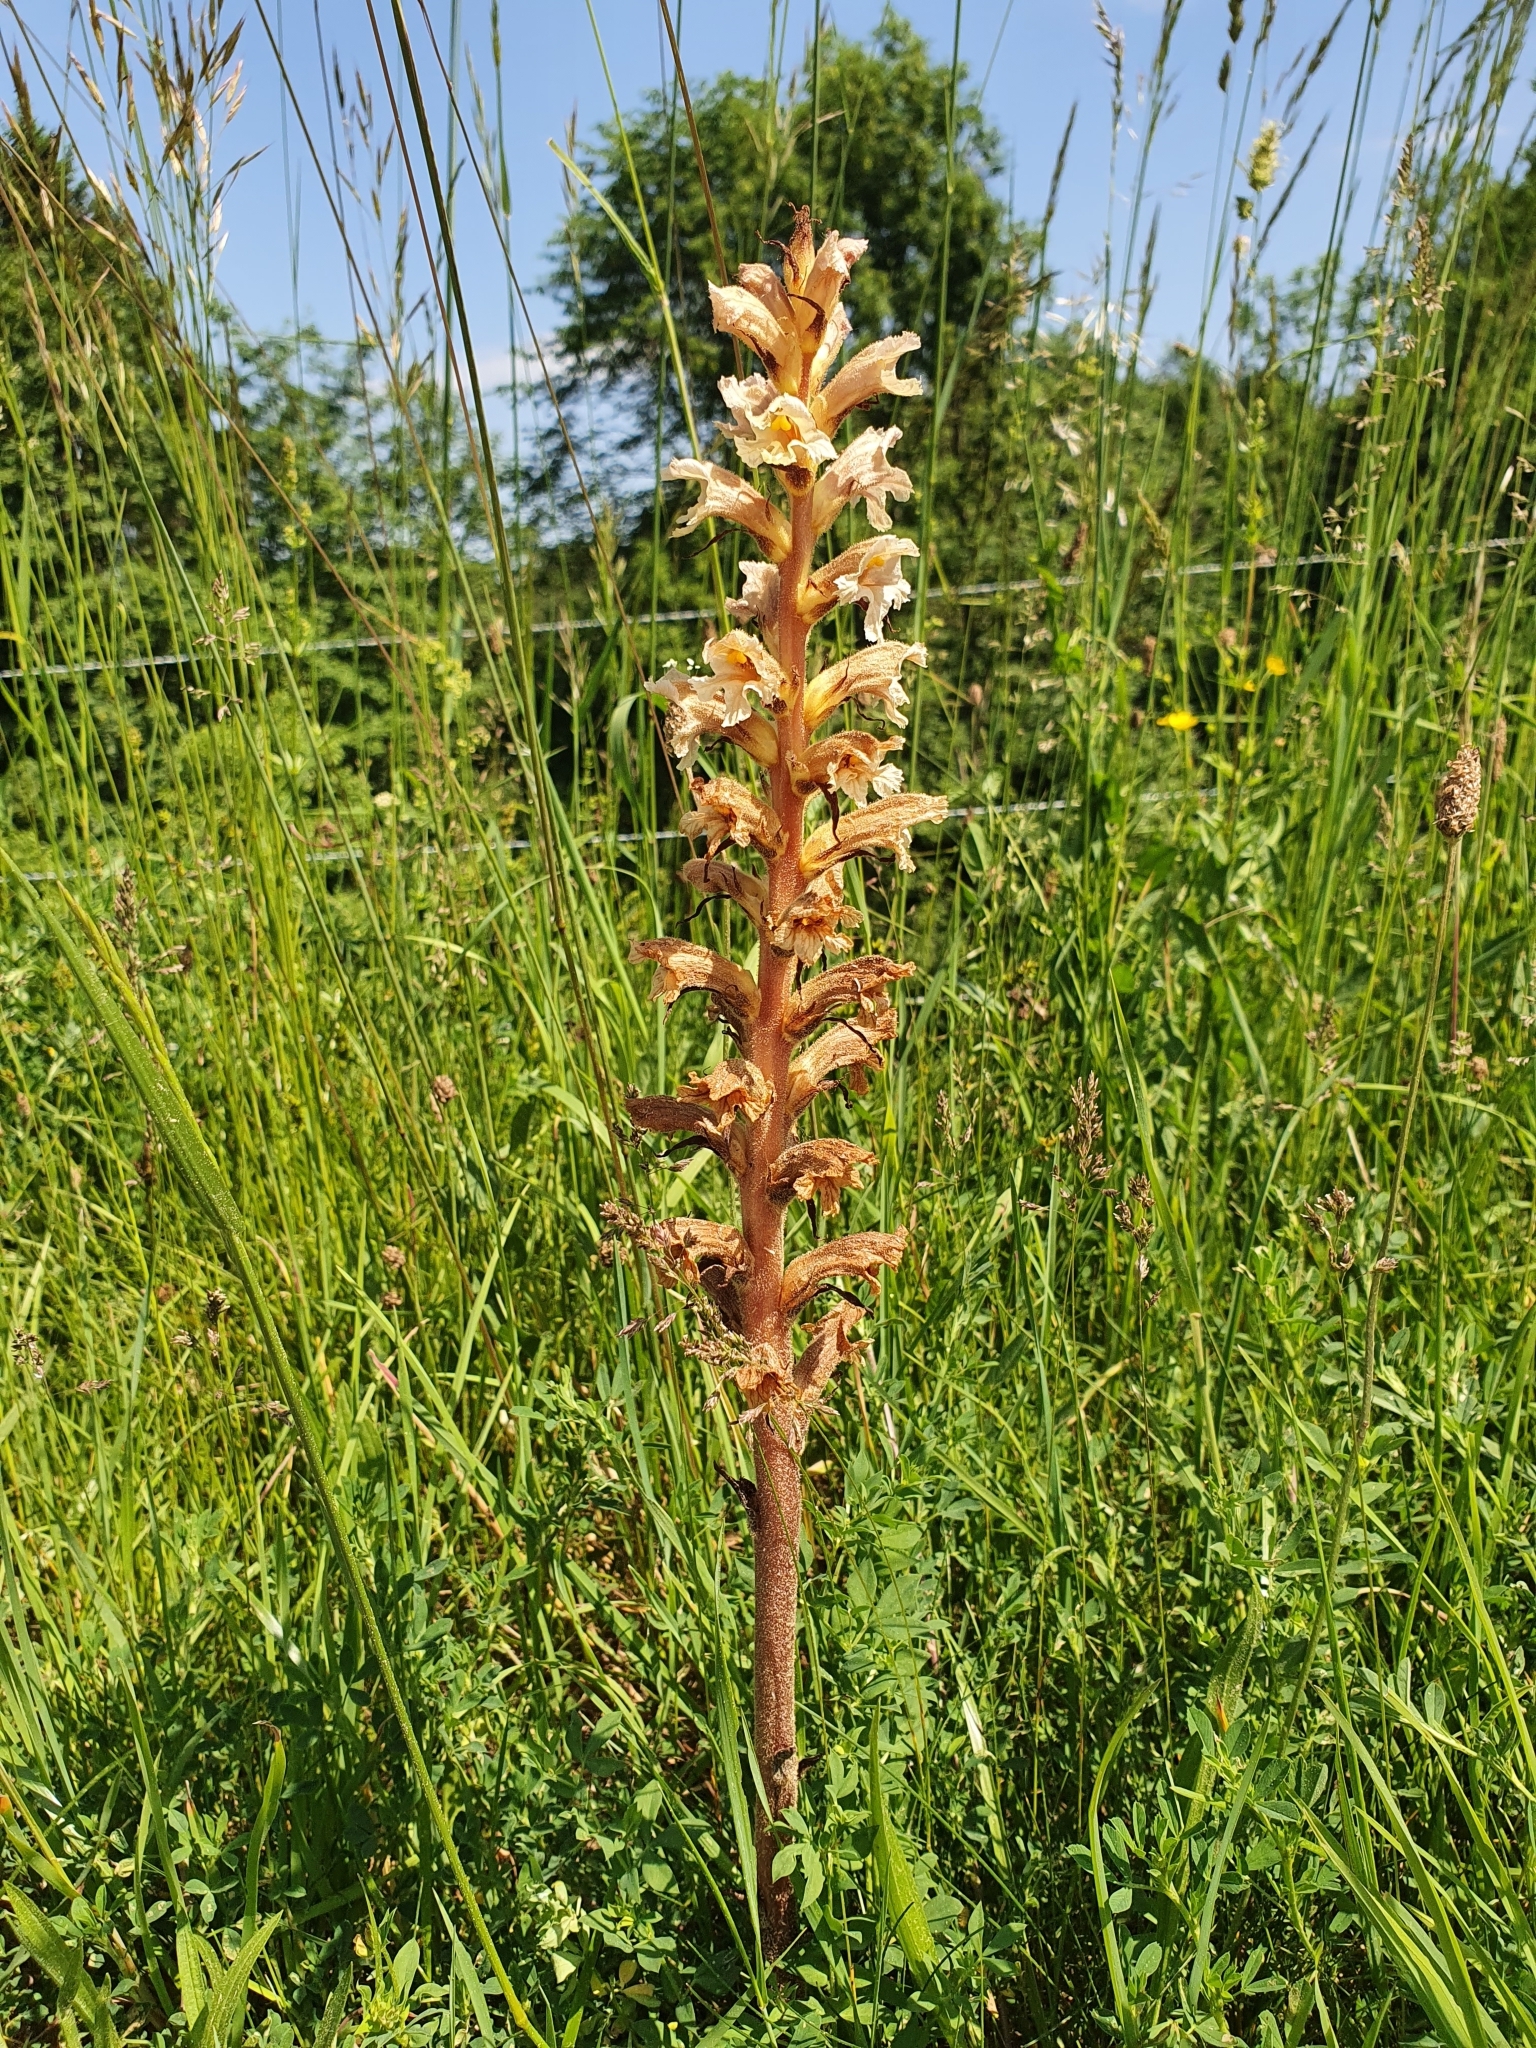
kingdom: Plantae
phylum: Tracheophyta
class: Magnoliopsida
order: Lamiales
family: Orobanchaceae
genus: Orobanche
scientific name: Orobanche lutea
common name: Yellow broomrape
